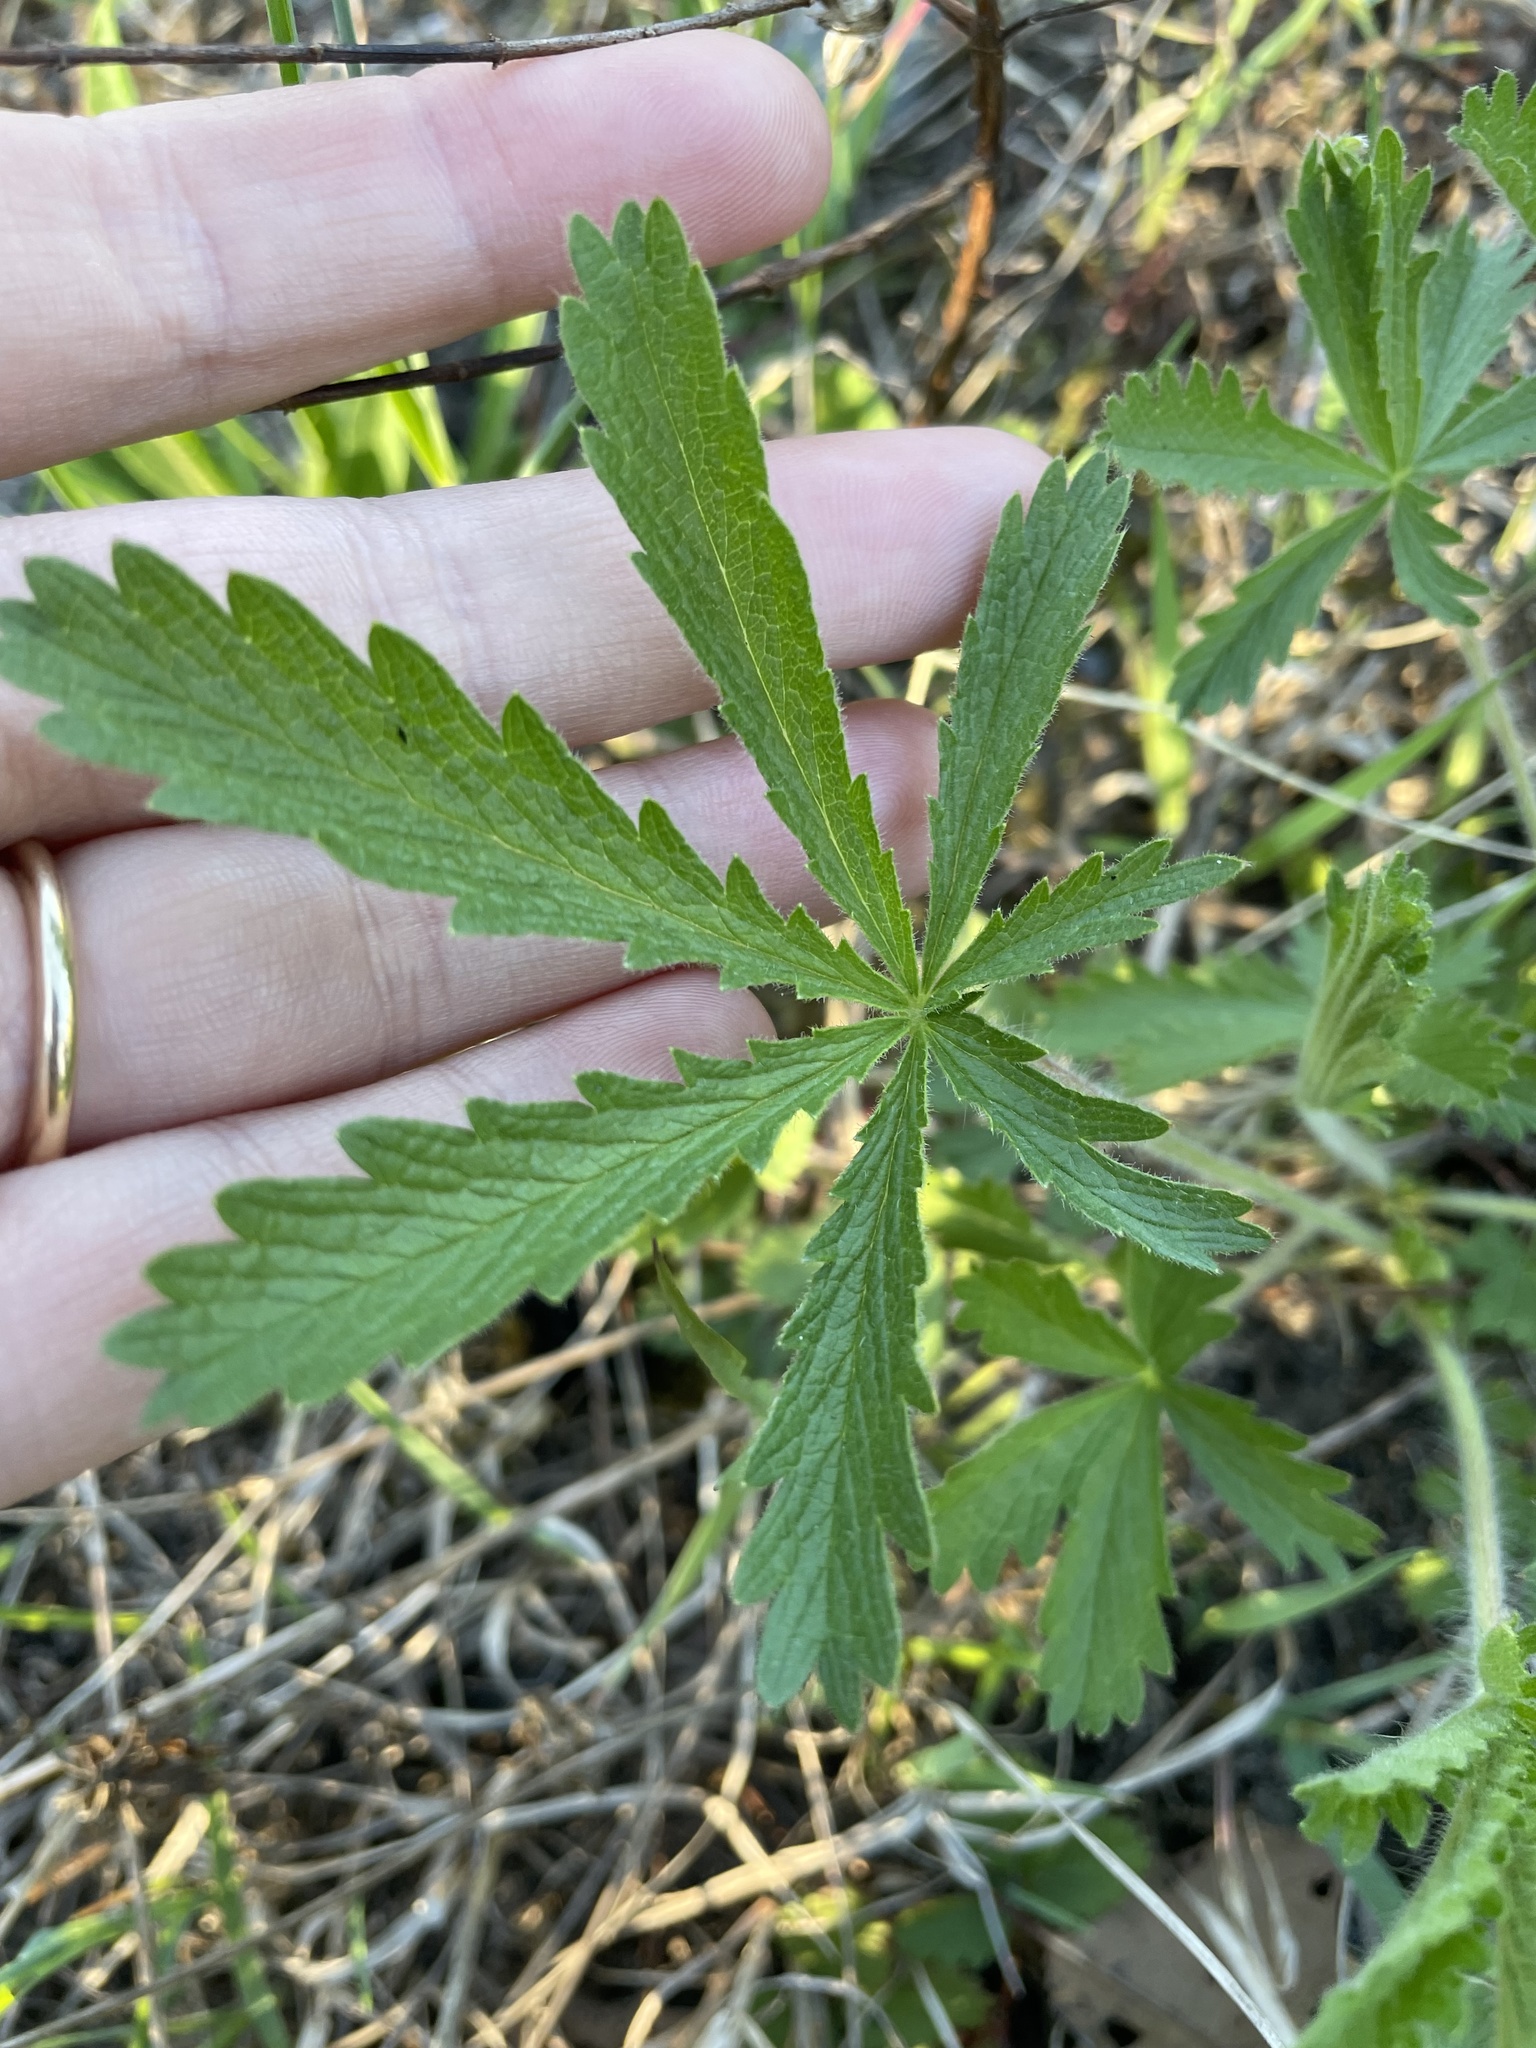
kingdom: Plantae
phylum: Tracheophyta
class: Magnoliopsida
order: Rosales
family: Rosaceae
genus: Potentilla
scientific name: Potentilla recta
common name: Sulphur cinquefoil
